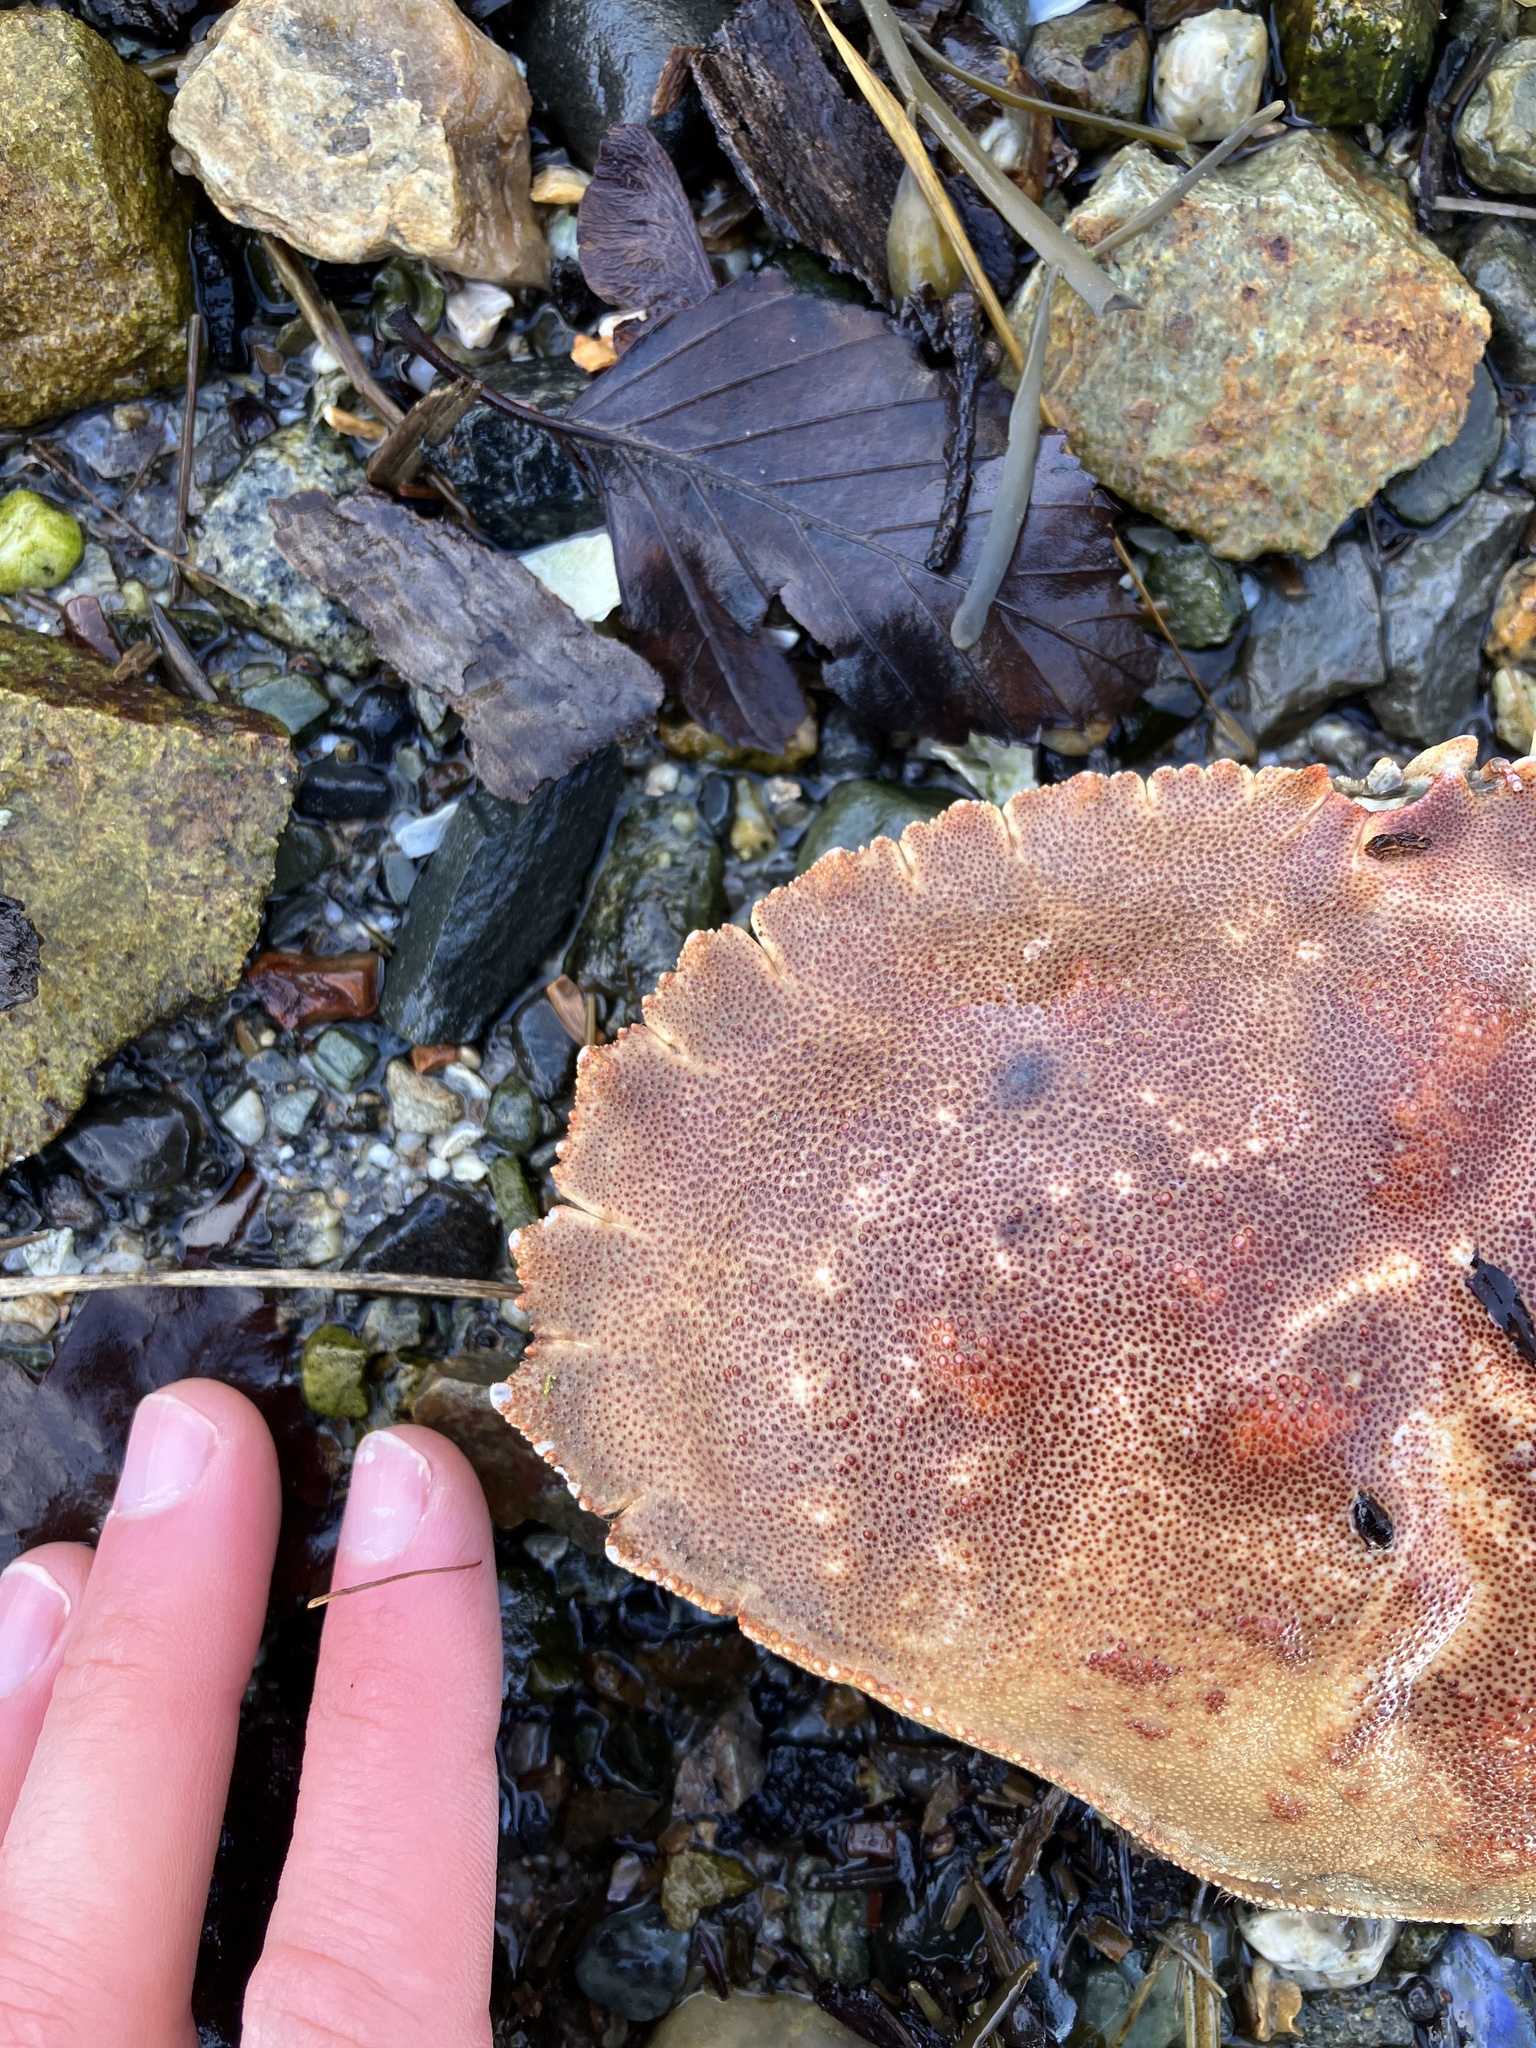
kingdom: Animalia
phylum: Arthropoda
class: Malacostraca
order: Decapoda
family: Cancridae
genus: Cancer
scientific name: Cancer borealis
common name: Jonah crab
